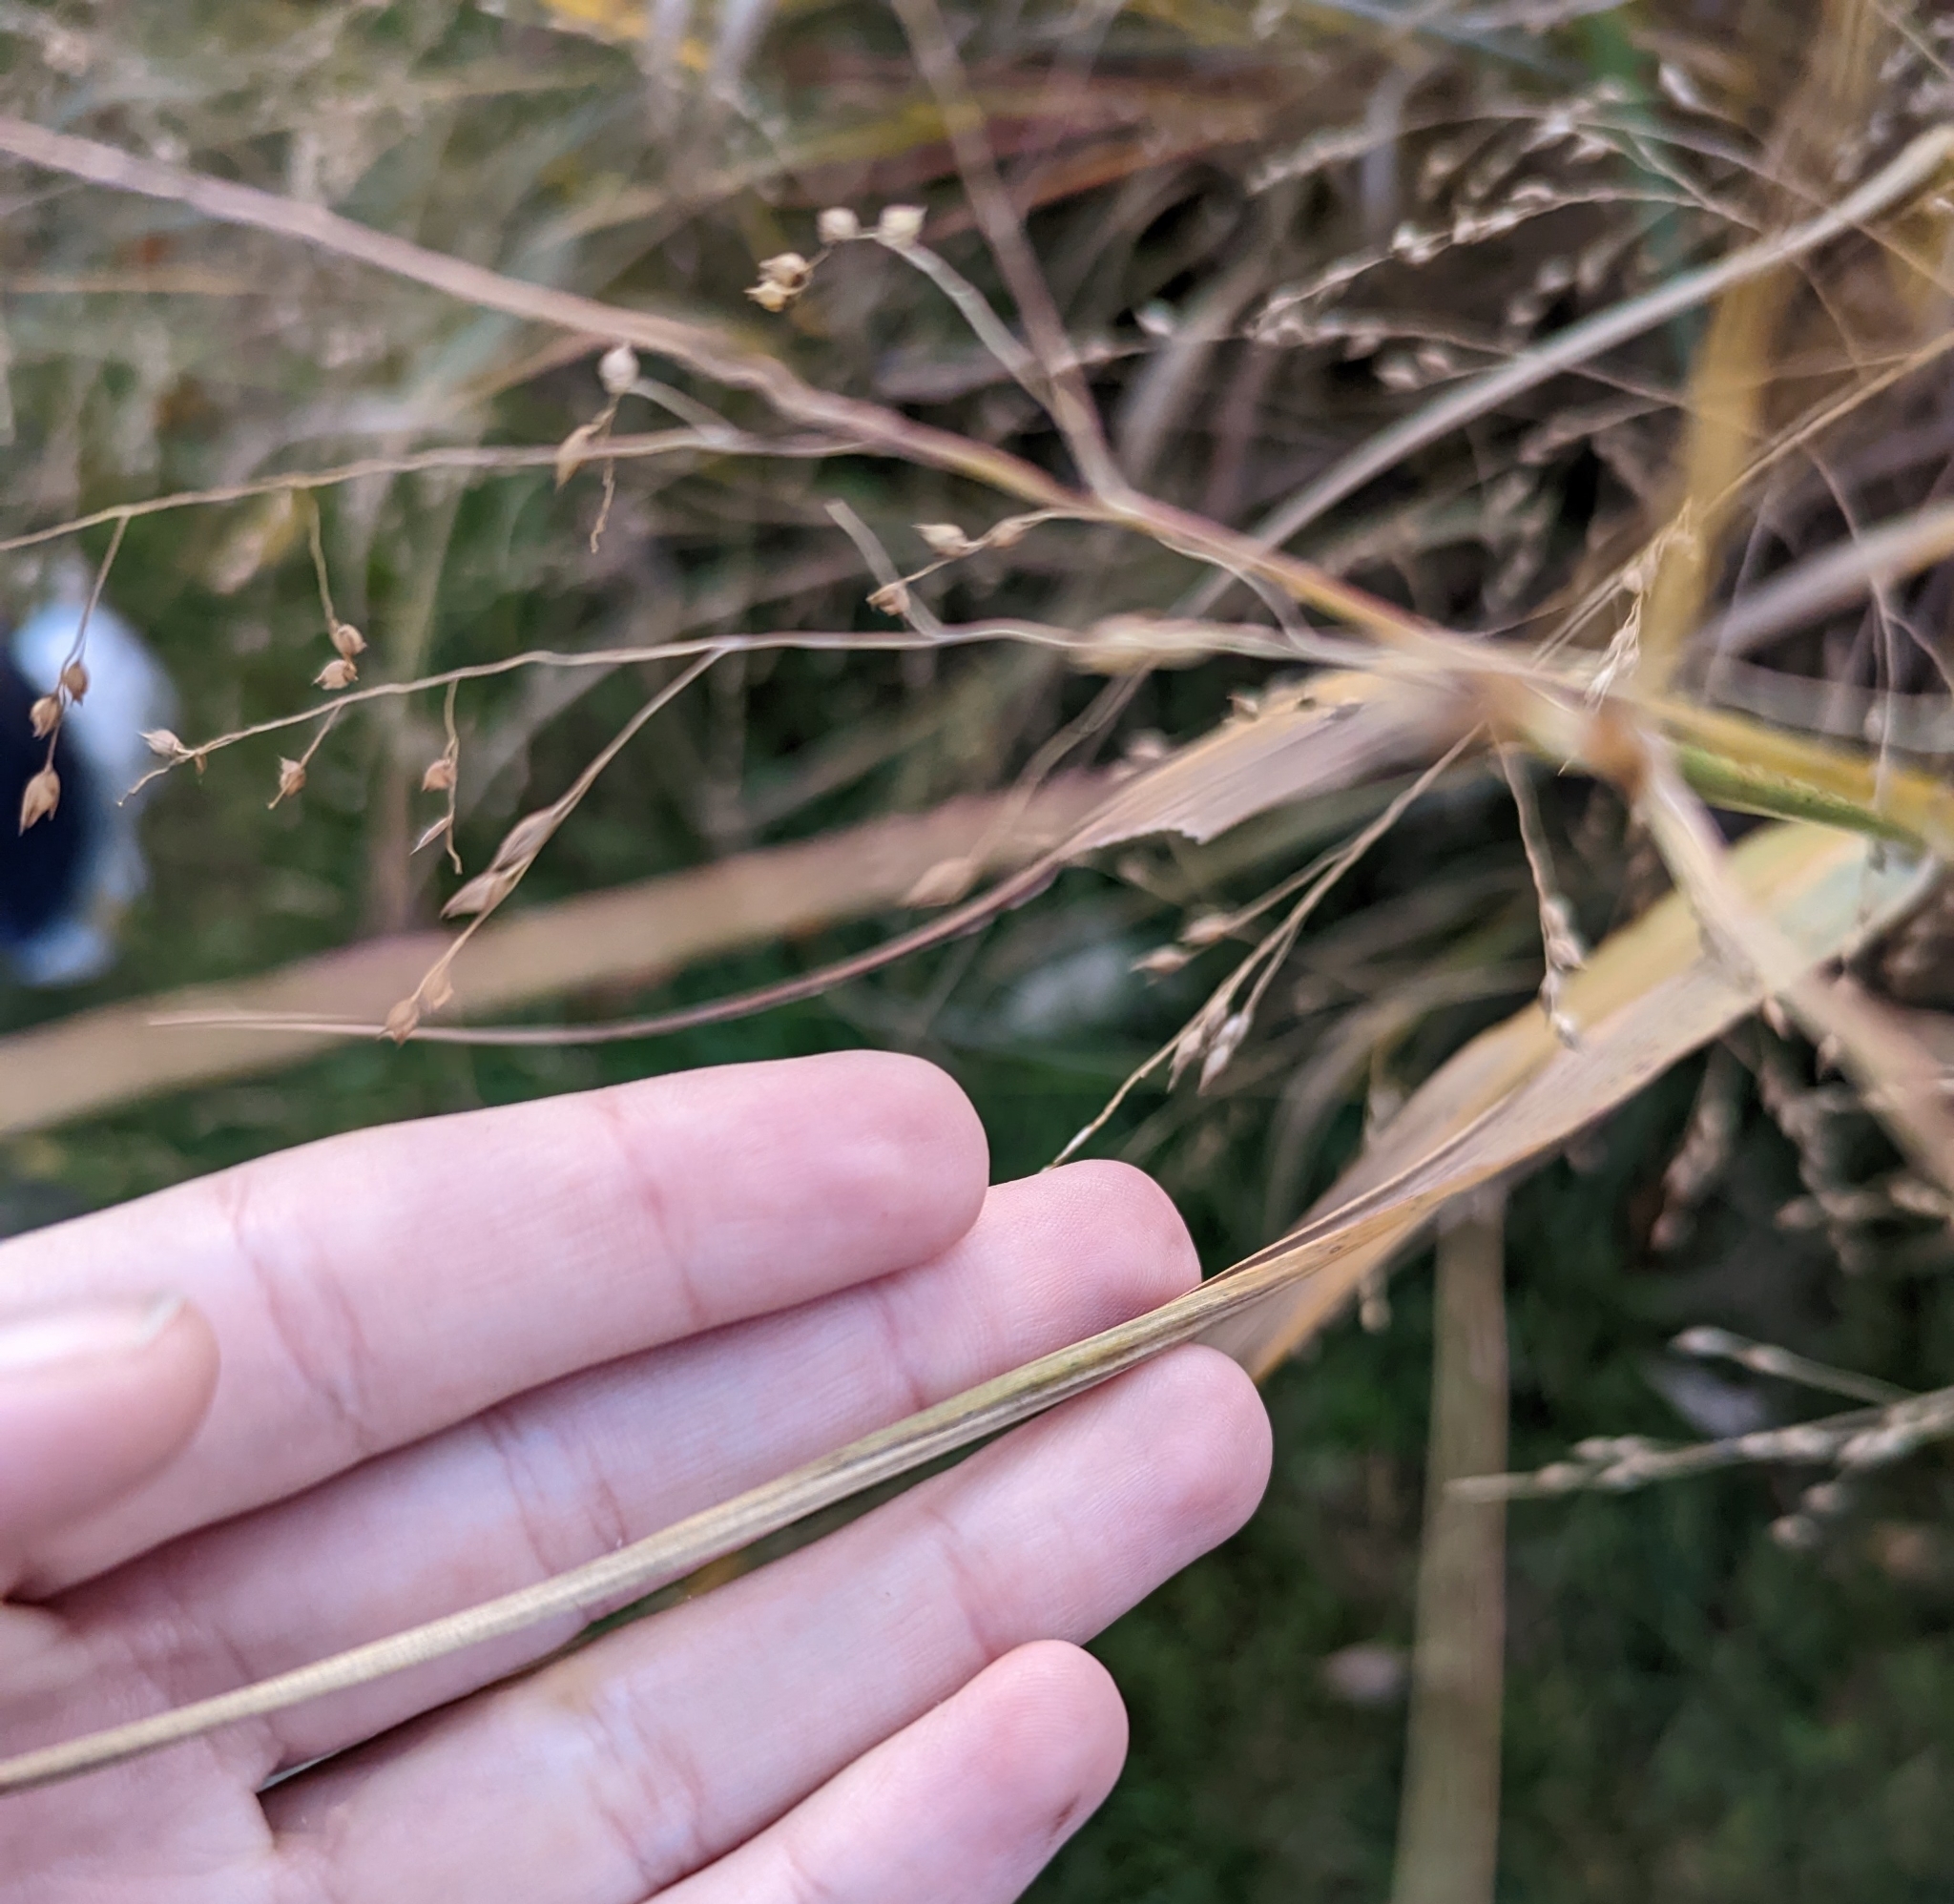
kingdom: Plantae
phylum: Tracheophyta
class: Liliopsida
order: Poales
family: Poaceae
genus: Panicum
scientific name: Panicum virgatum
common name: Switchgrass
